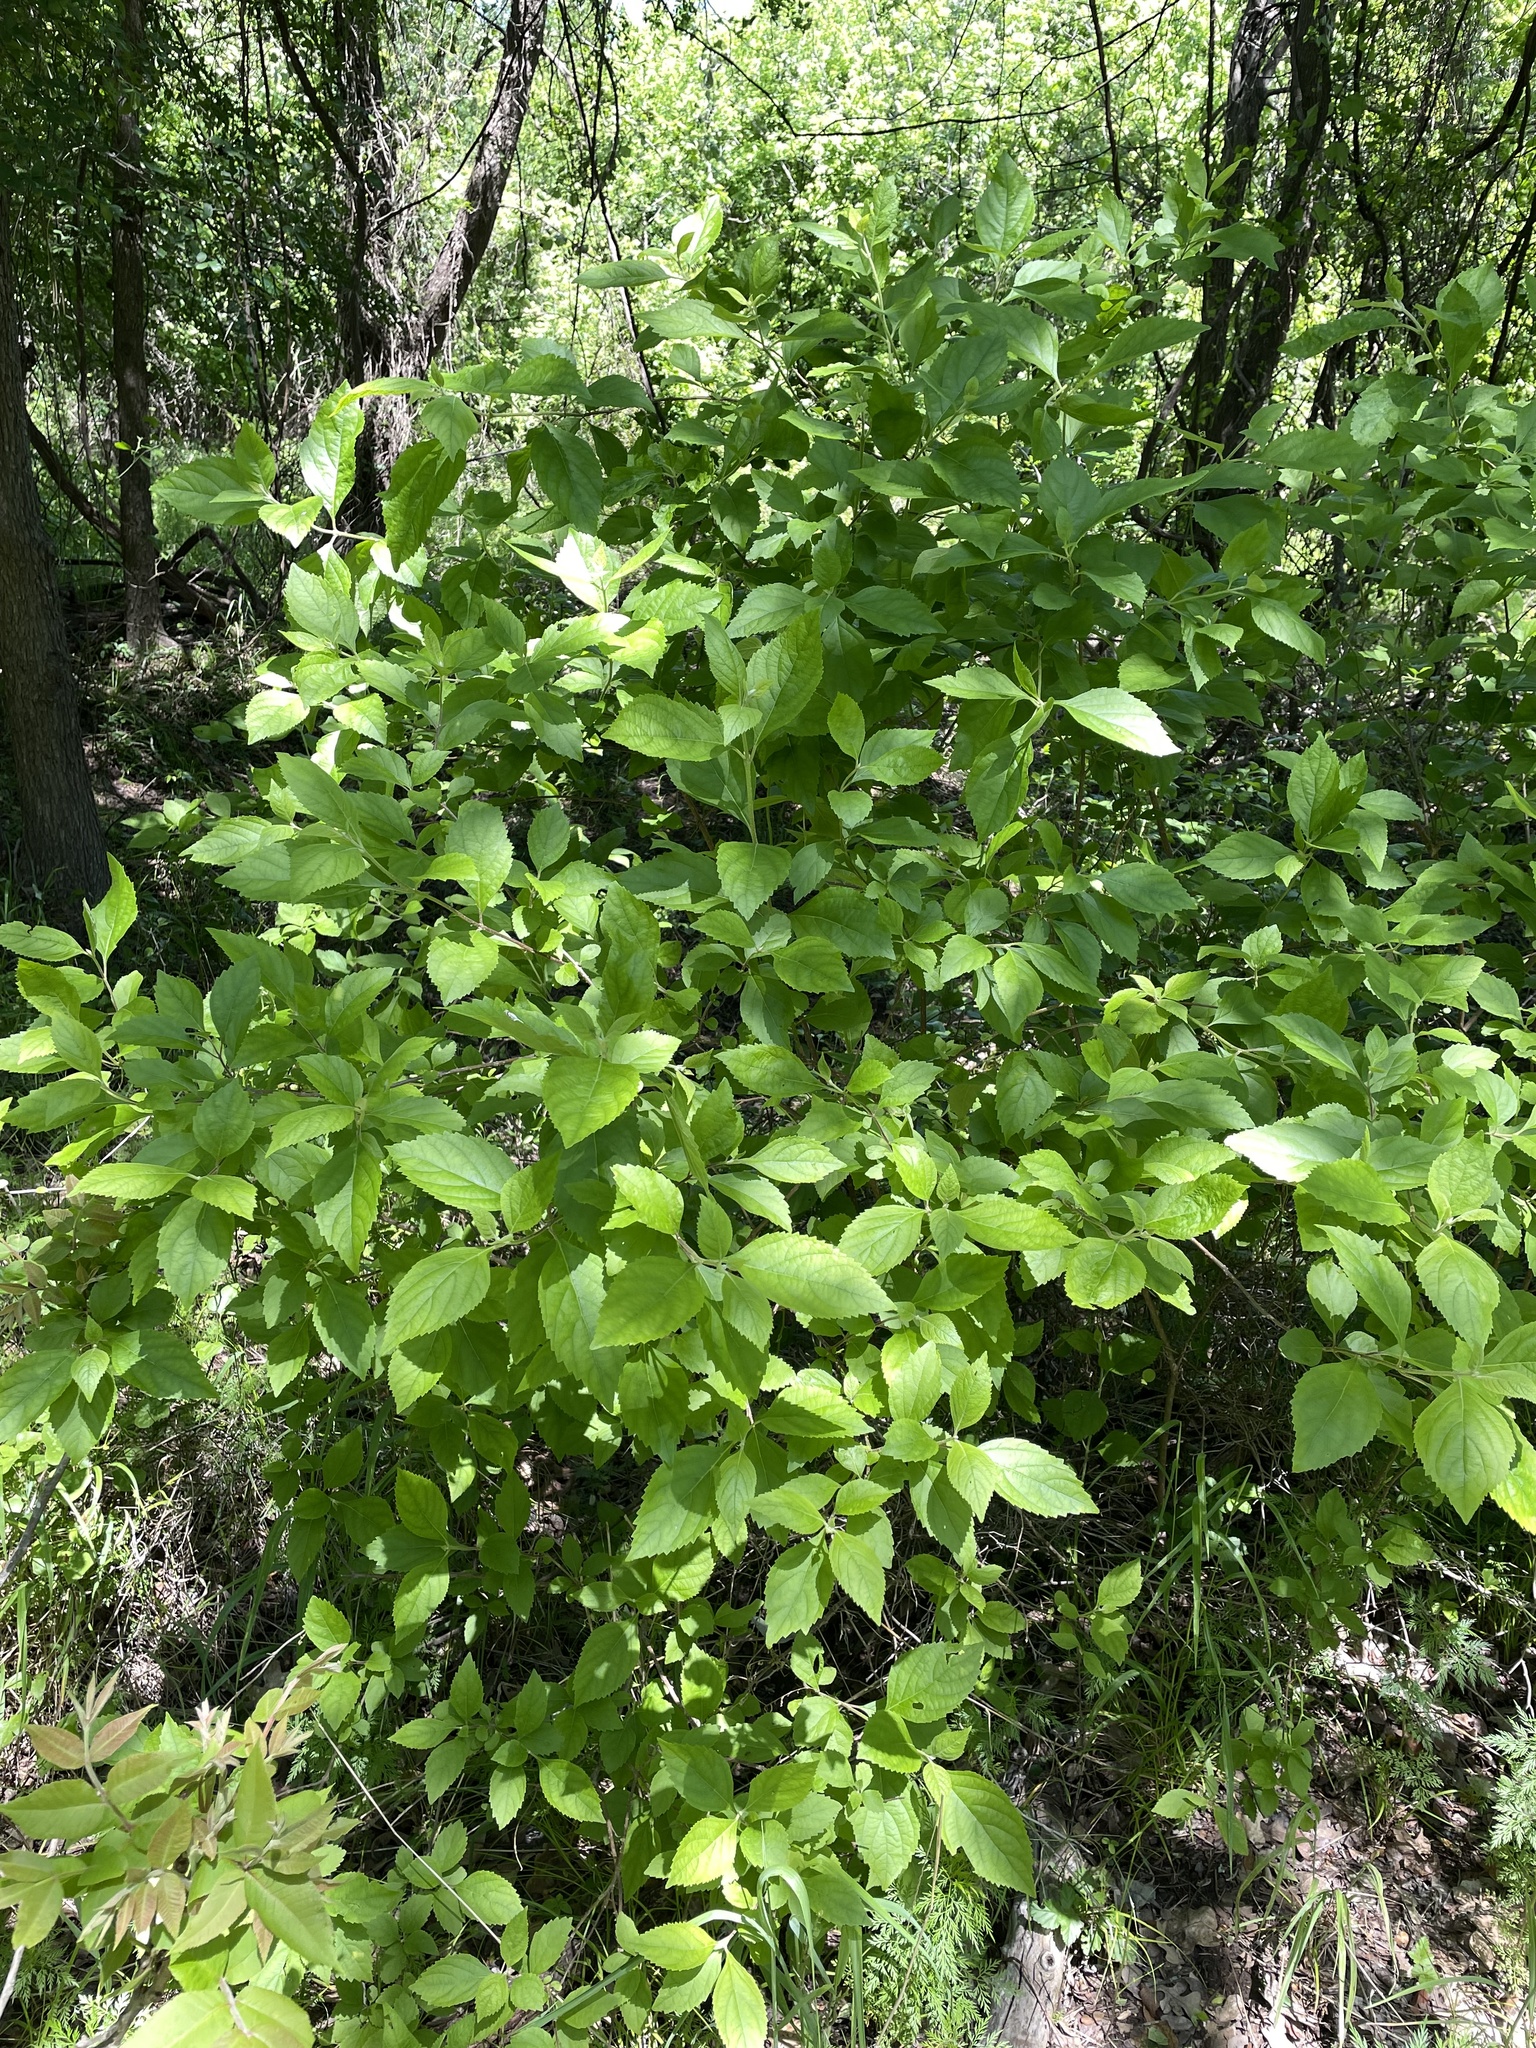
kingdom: Plantae
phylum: Tracheophyta
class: Magnoliopsida
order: Lamiales
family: Lamiaceae
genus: Callicarpa
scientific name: Callicarpa americana
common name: American beautyberry
